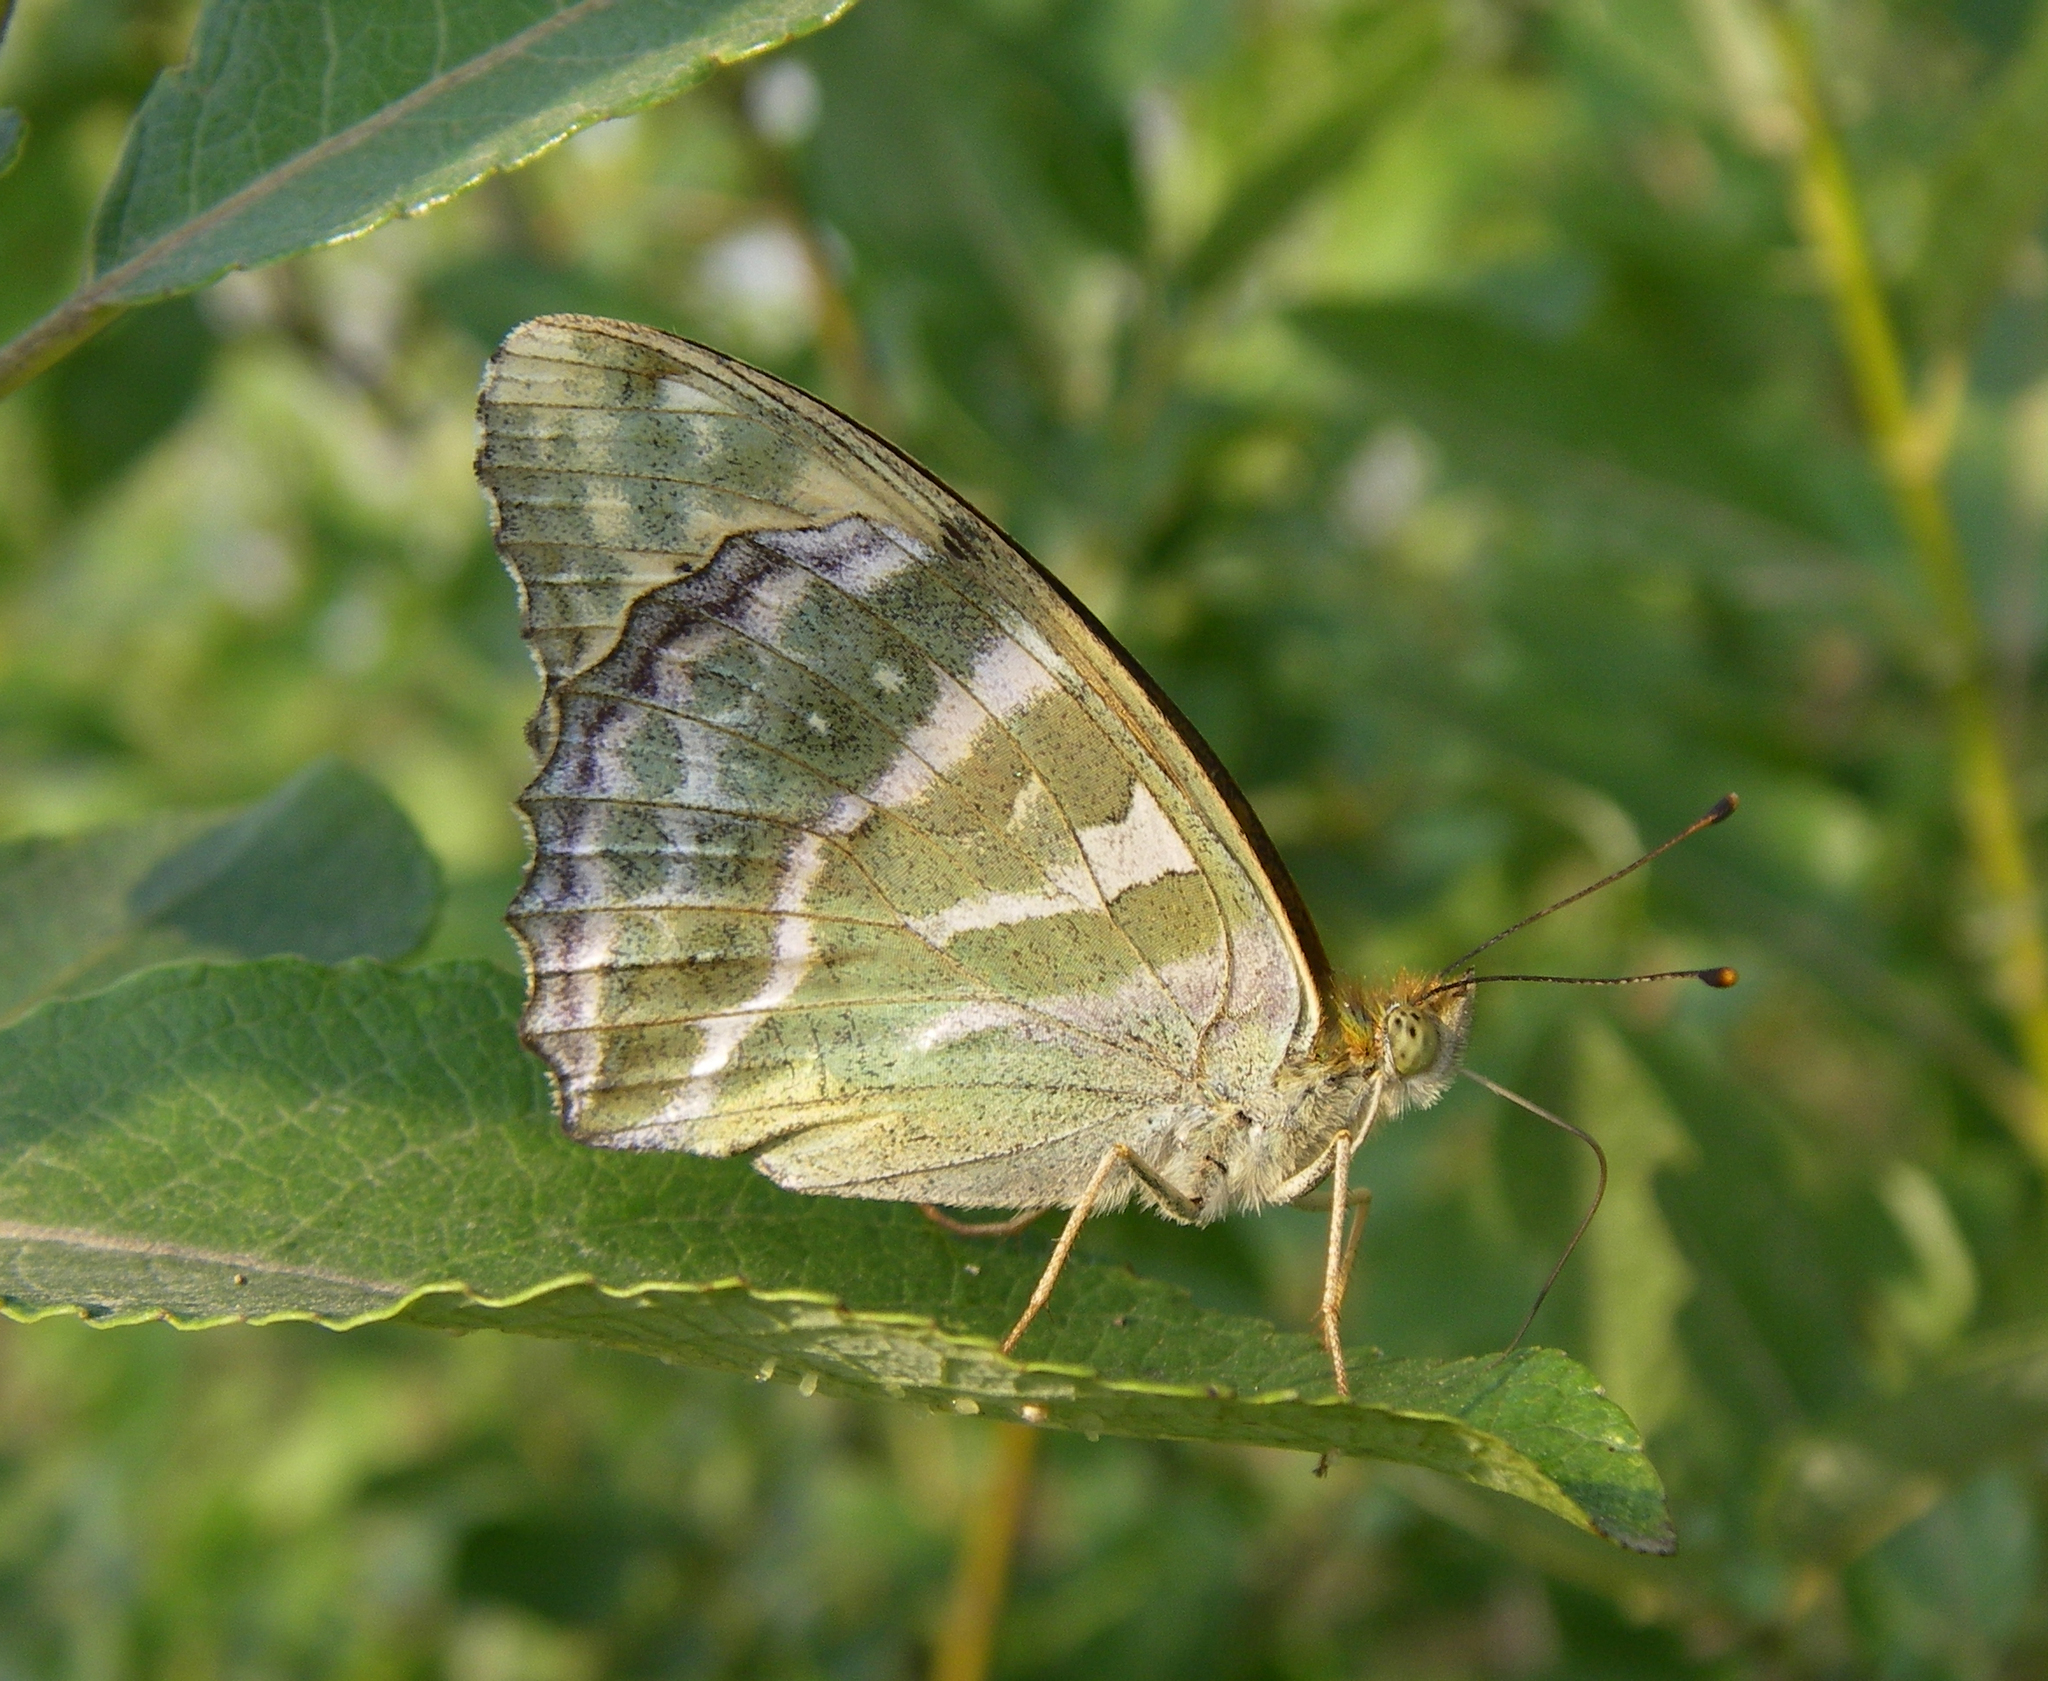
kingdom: Animalia
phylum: Arthropoda
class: Insecta
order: Lepidoptera
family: Nymphalidae
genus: Argynnis
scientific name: Argynnis paphia
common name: Silver-washed fritillary
